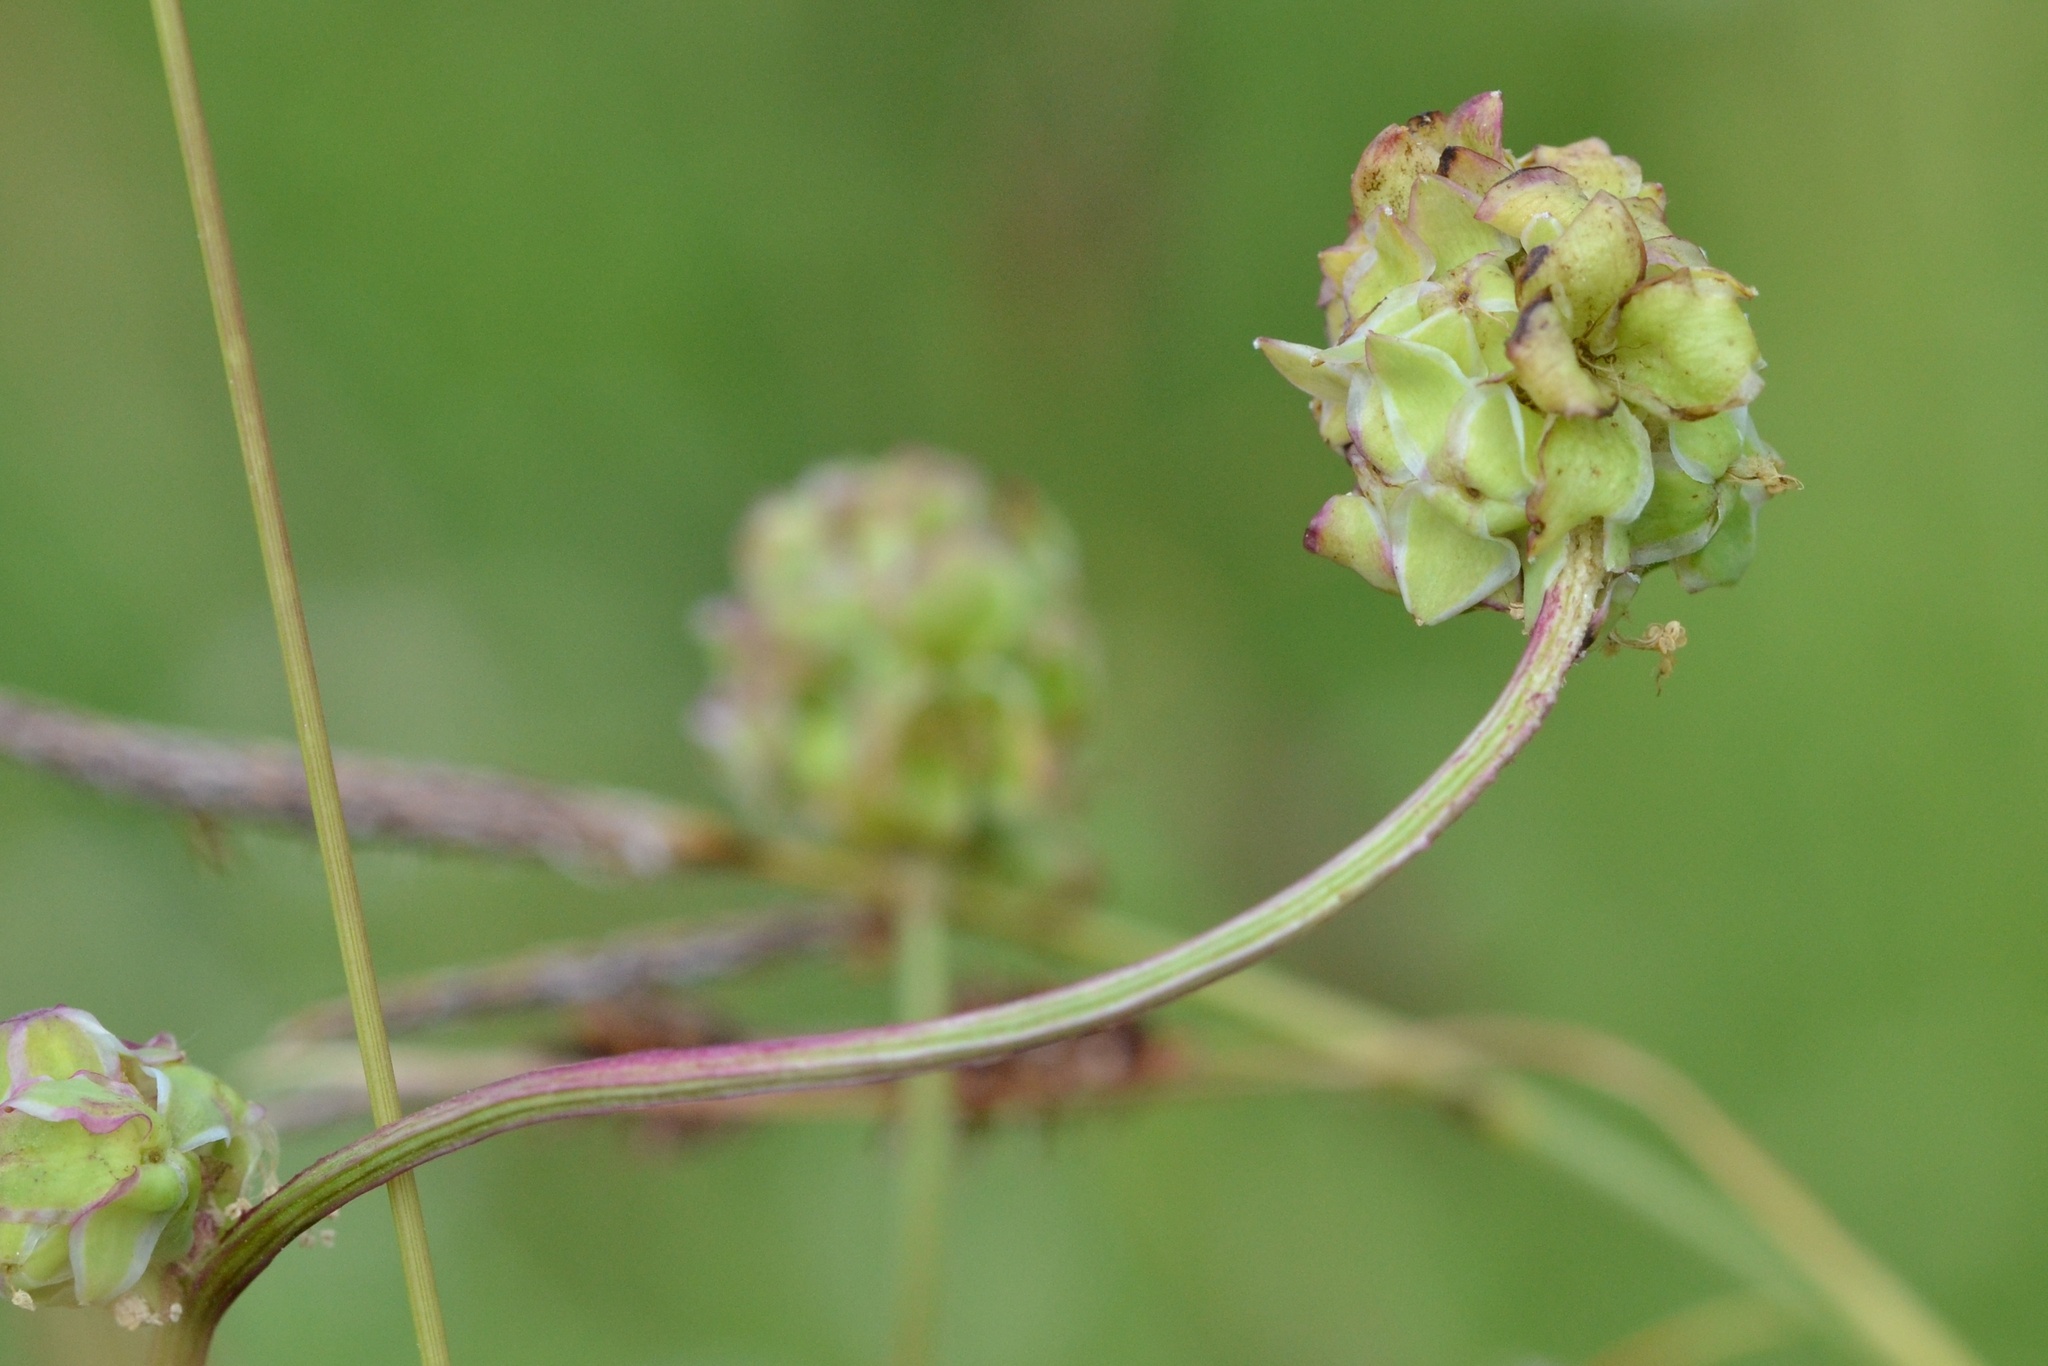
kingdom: Plantae
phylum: Tracheophyta
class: Magnoliopsida
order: Rosales
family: Rosaceae
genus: Poterium
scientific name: Poterium sanguisorba
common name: Salad burnet
